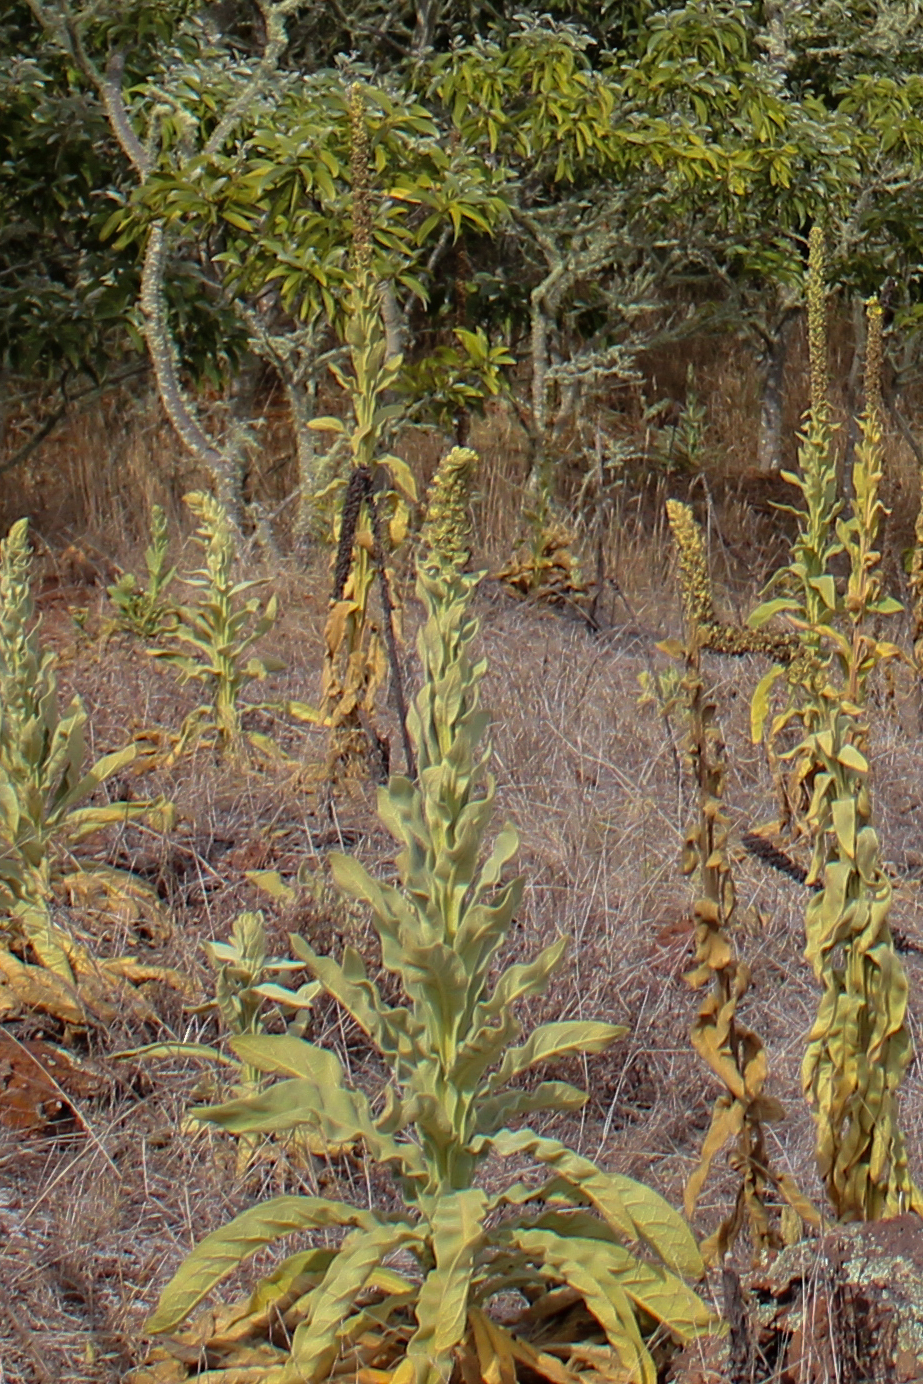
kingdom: Plantae
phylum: Tracheophyta
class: Magnoliopsida
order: Lamiales
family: Scrophulariaceae
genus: Verbascum
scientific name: Verbascum thapsus
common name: Common mullein
